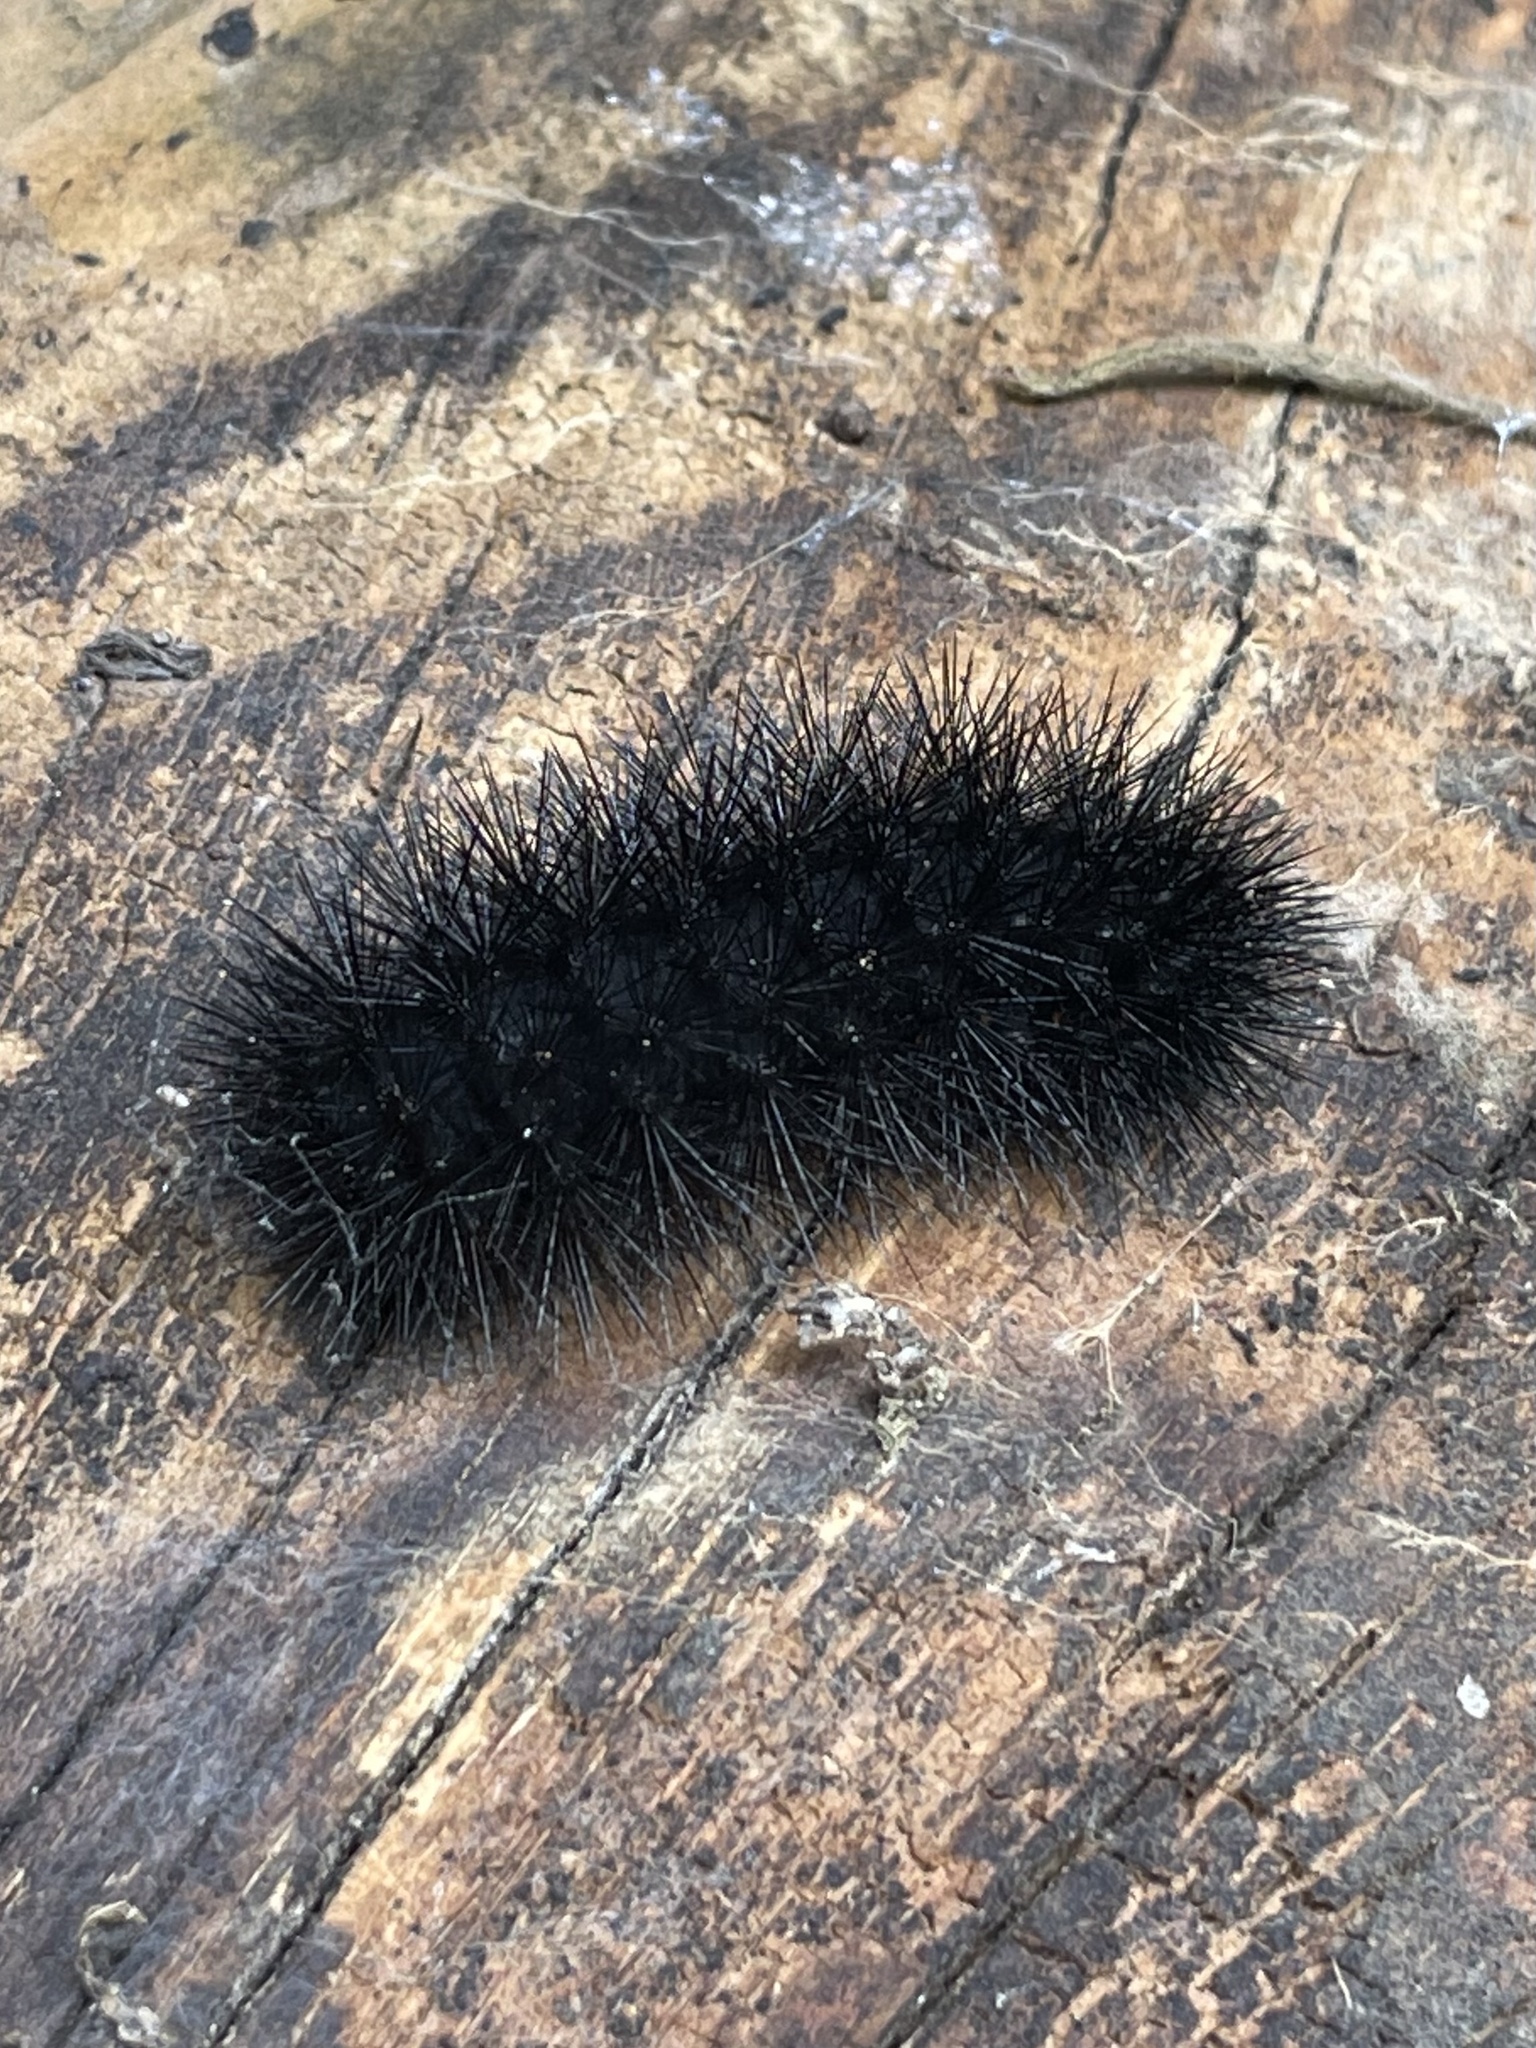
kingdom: Animalia
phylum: Arthropoda
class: Insecta
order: Lepidoptera
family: Erebidae
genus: Hypercompe
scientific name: Hypercompe scribonia
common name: Giant leopard moth
